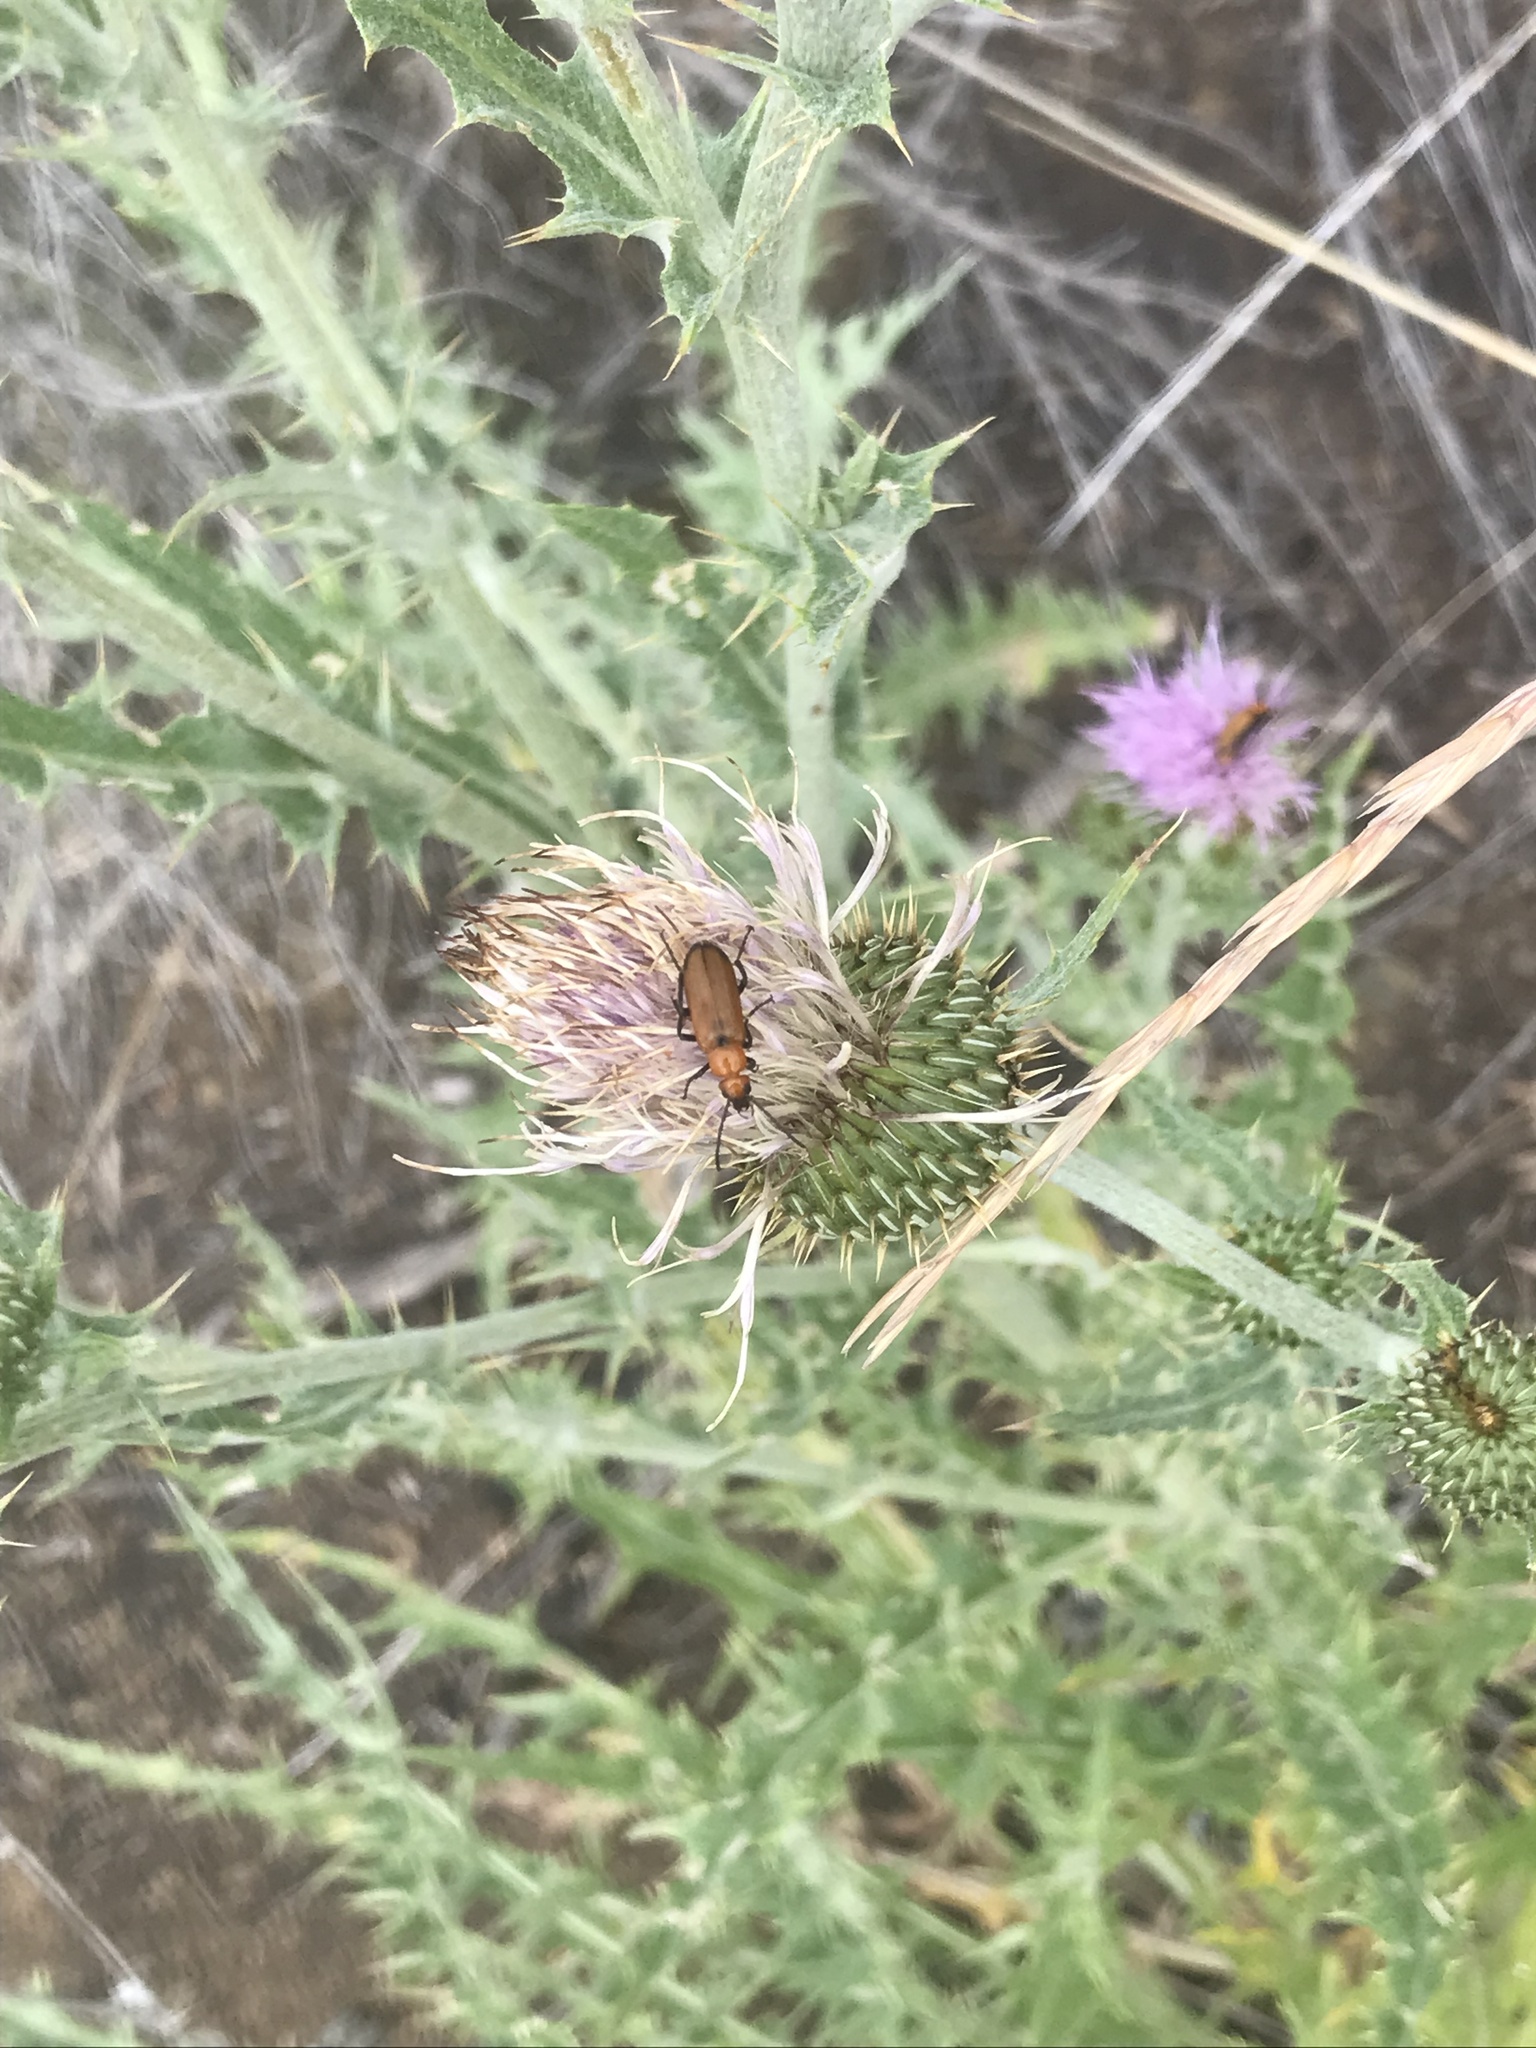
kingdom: Animalia
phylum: Arthropoda
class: Insecta
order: Coleoptera
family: Meloidae
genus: Nemognatha
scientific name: Nemognatha lutea
